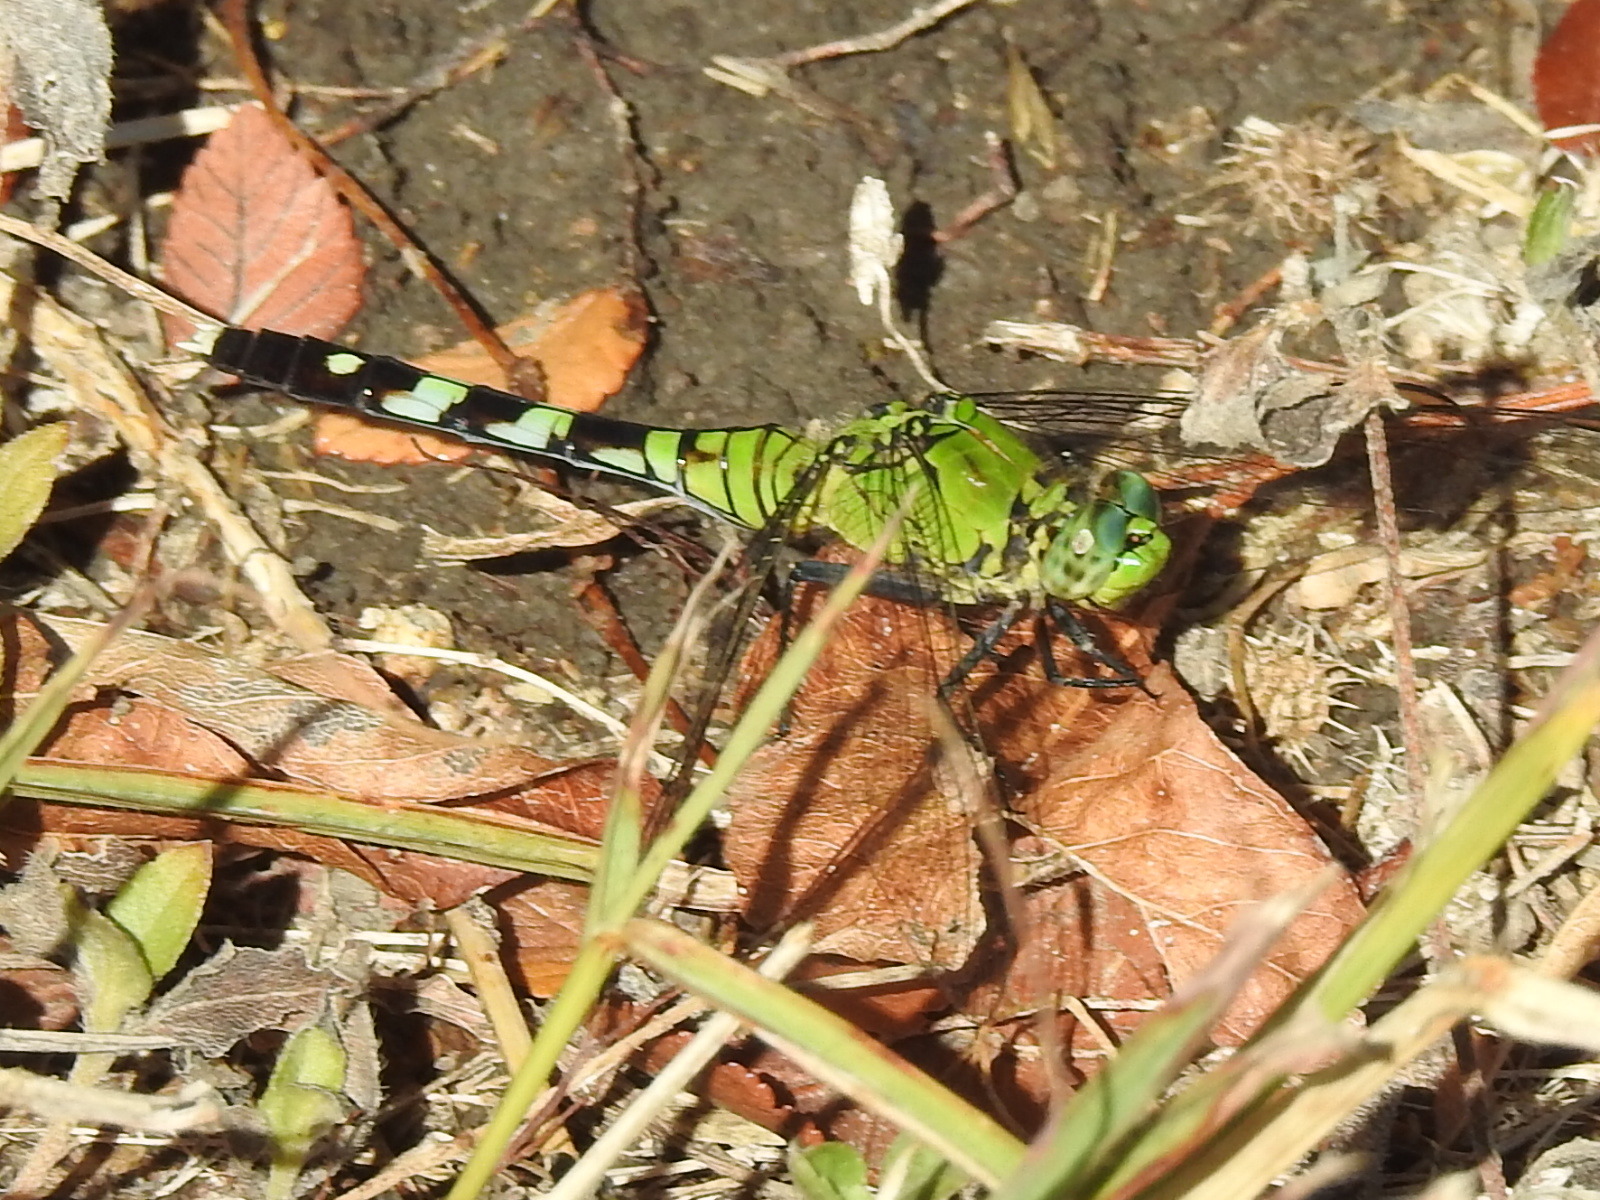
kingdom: Animalia
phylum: Arthropoda
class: Insecta
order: Odonata
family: Libellulidae
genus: Erythemis
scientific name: Erythemis simplicicollis
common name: Eastern pondhawk
